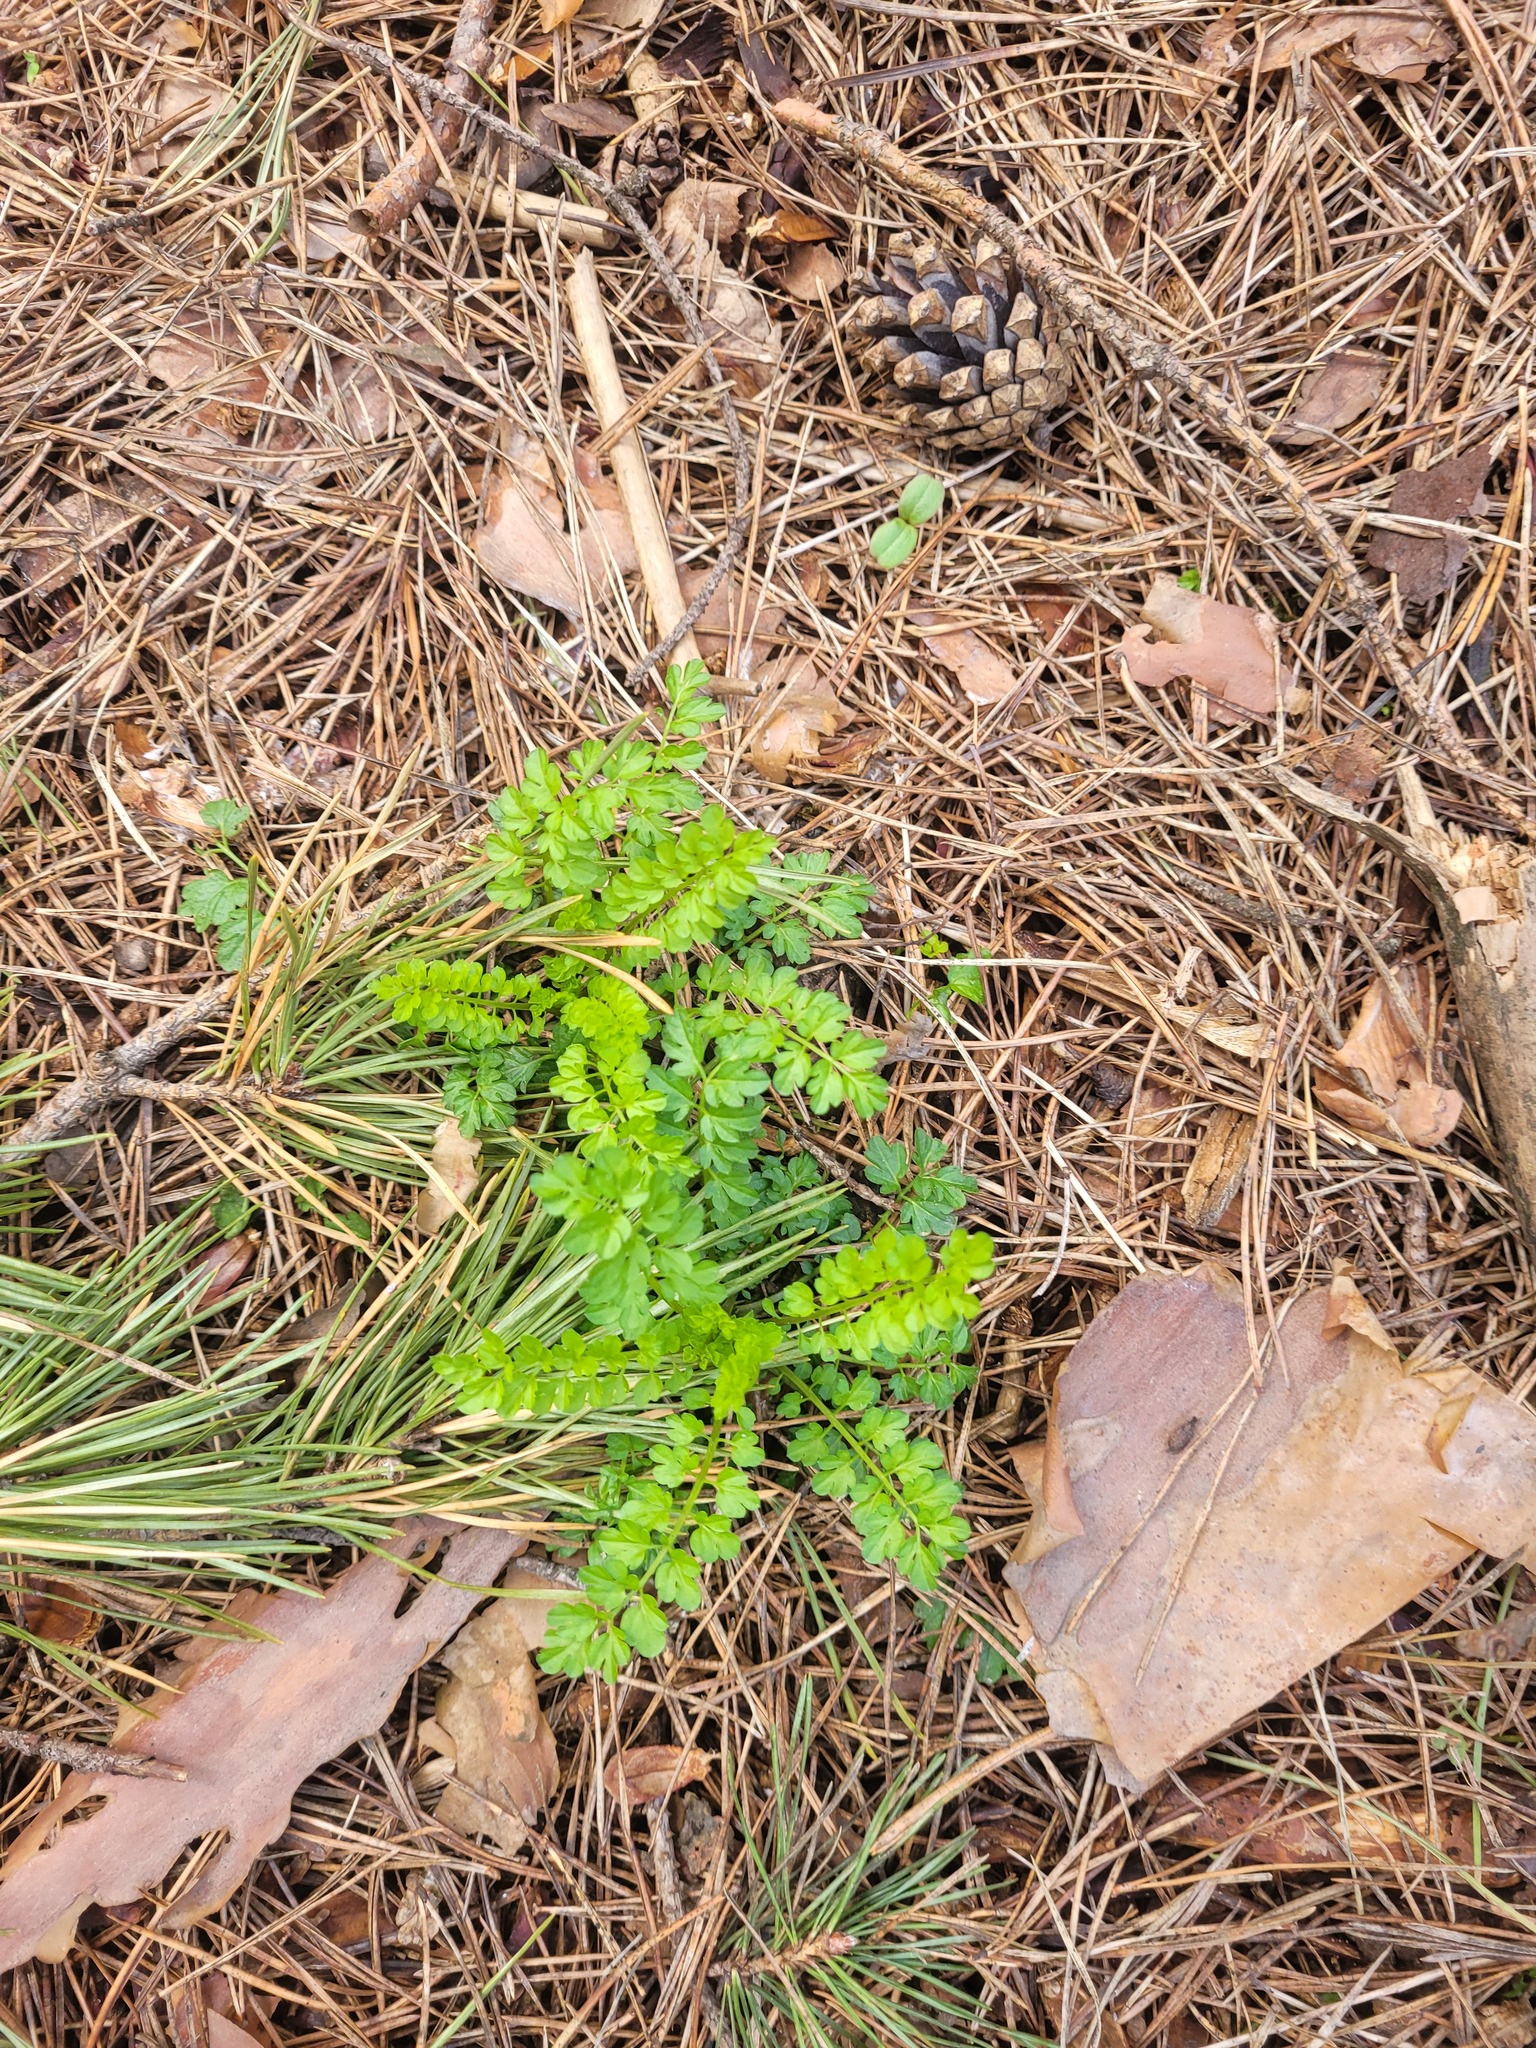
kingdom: Plantae
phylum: Tracheophyta
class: Magnoliopsida
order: Brassicales
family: Brassicaceae
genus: Cardamine
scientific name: Cardamine impatiens
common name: Narrow-leaved bitter-cress
